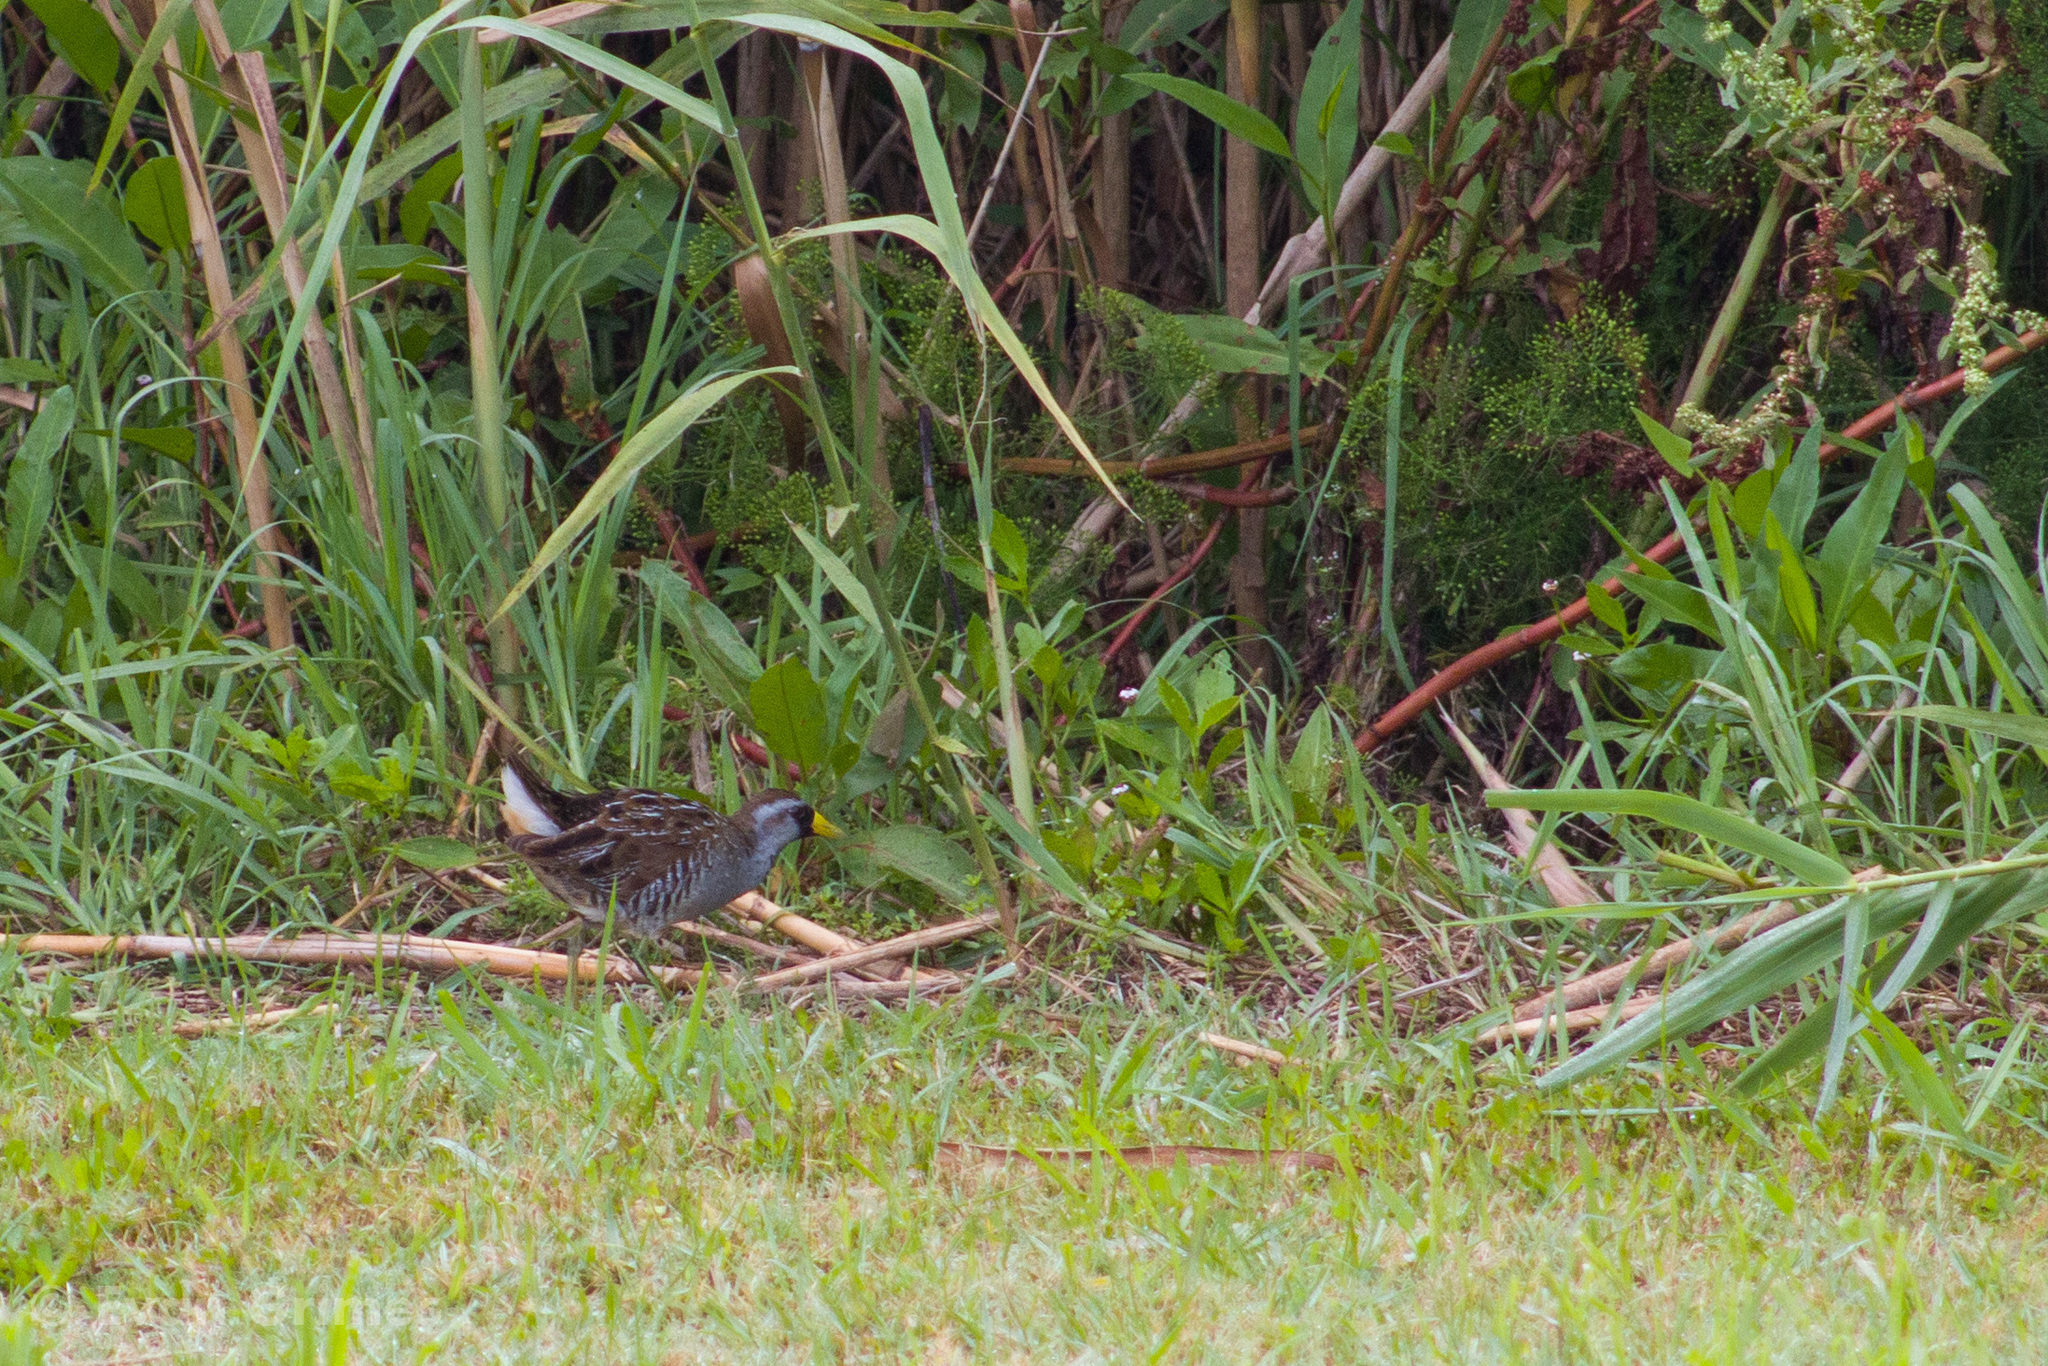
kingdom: Animalia
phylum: Chordata
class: Aves
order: Gruiformes
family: Rallidae
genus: Porzana
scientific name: Porzana carolina
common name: Sora
